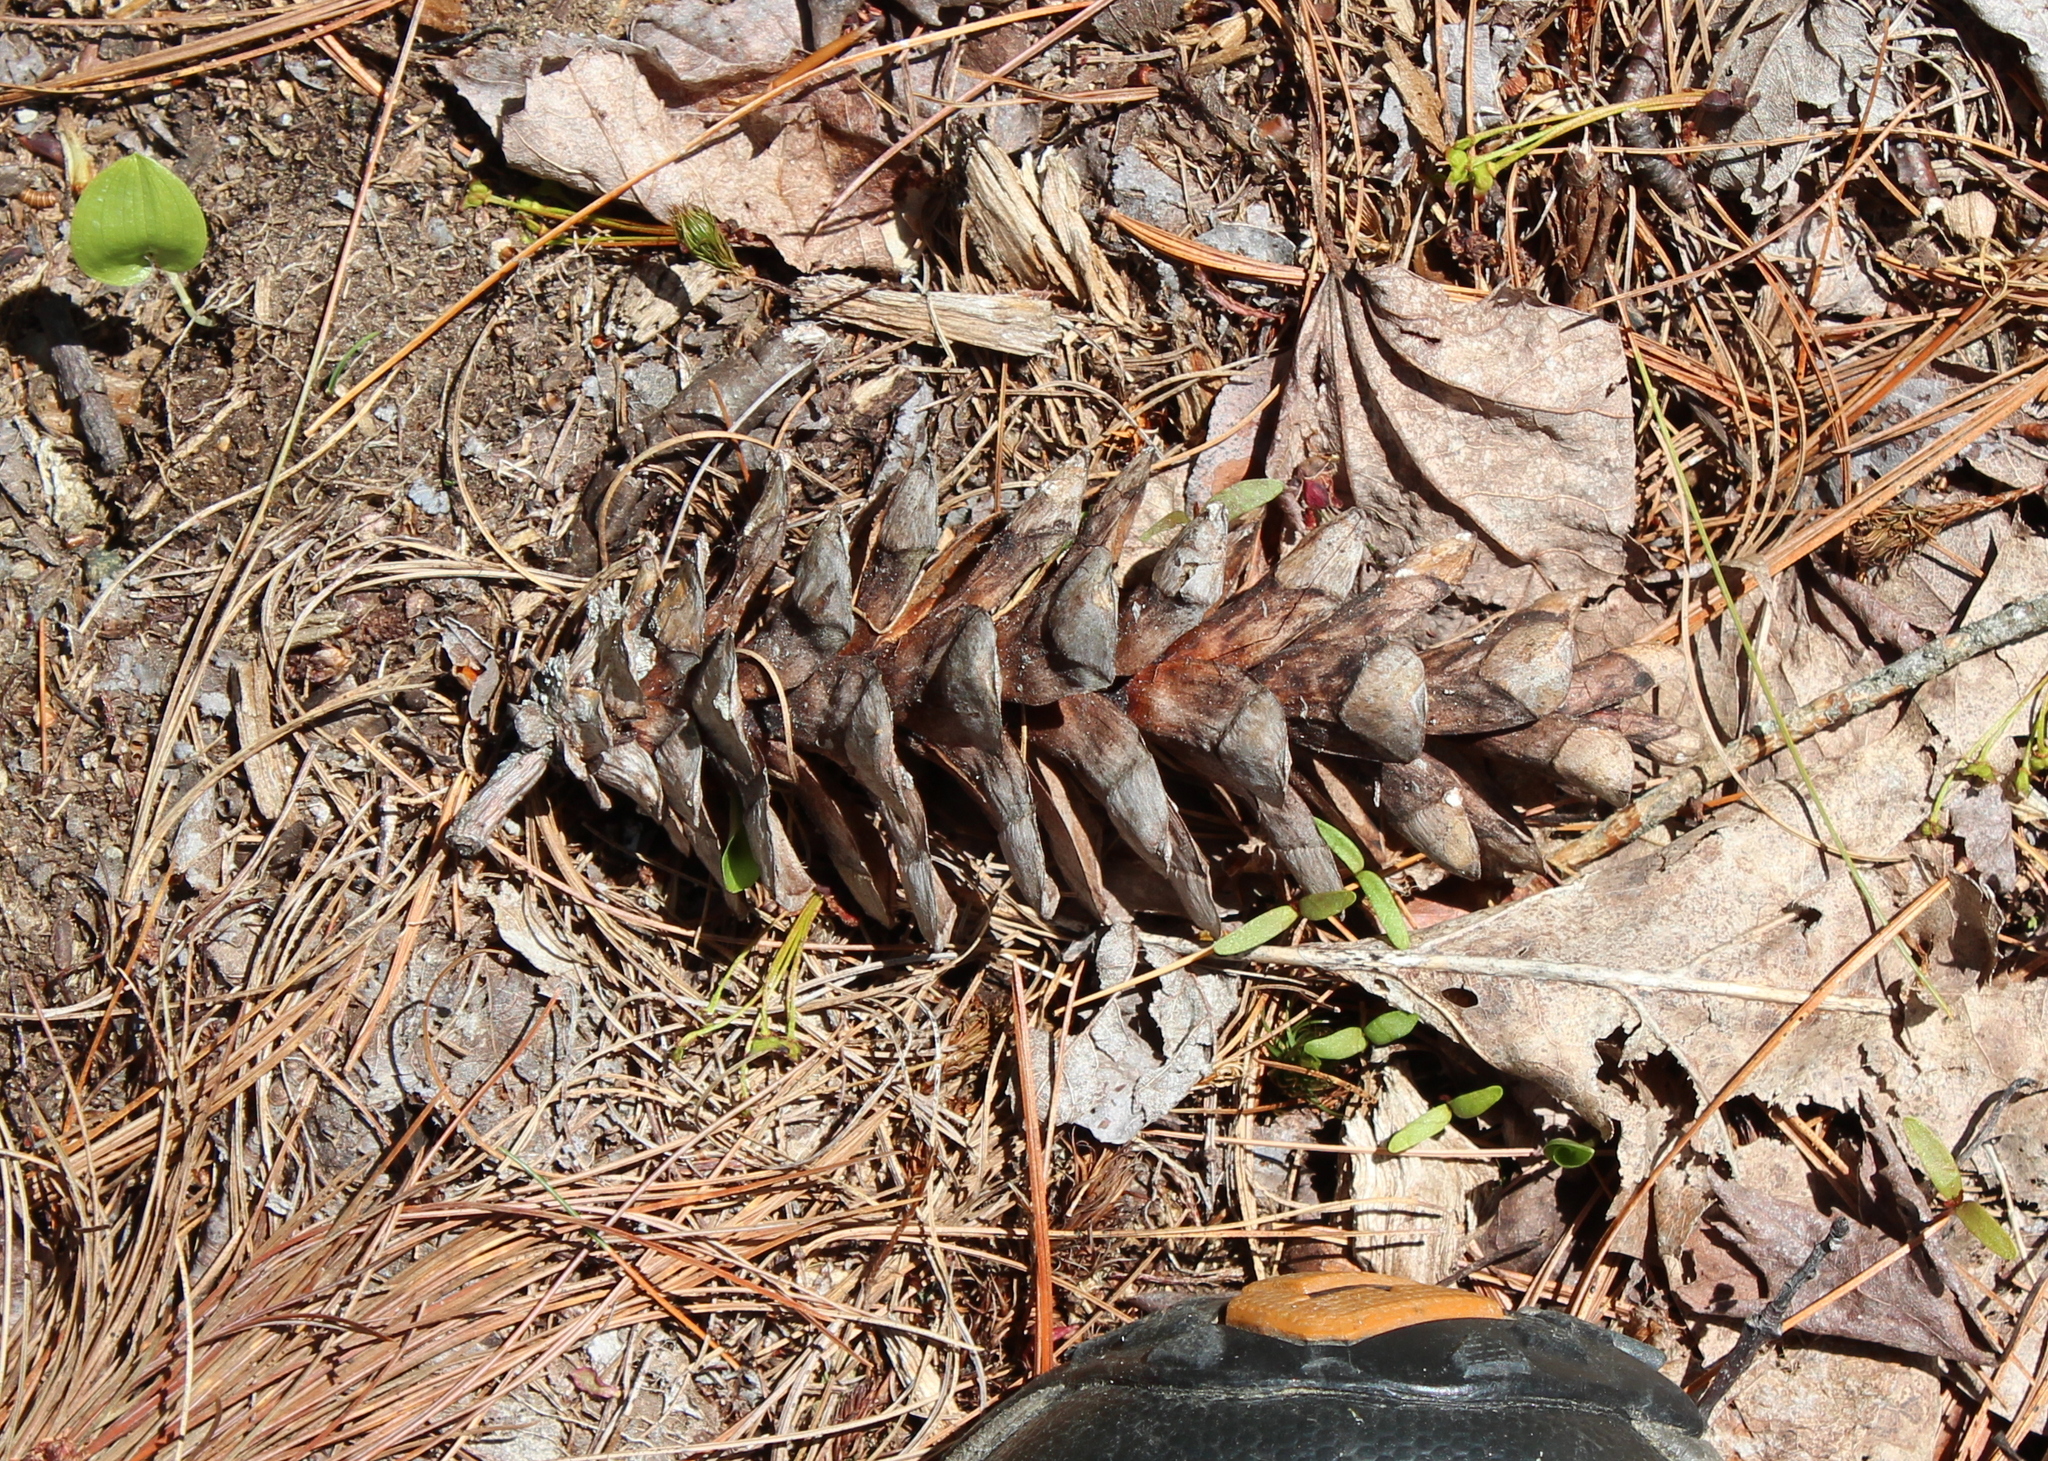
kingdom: Plantae
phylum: Tracheophyta
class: Pinopsida
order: Pinales
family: Pinaceae
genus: Pinus
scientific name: Pinus strobus
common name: Weymouth pine
